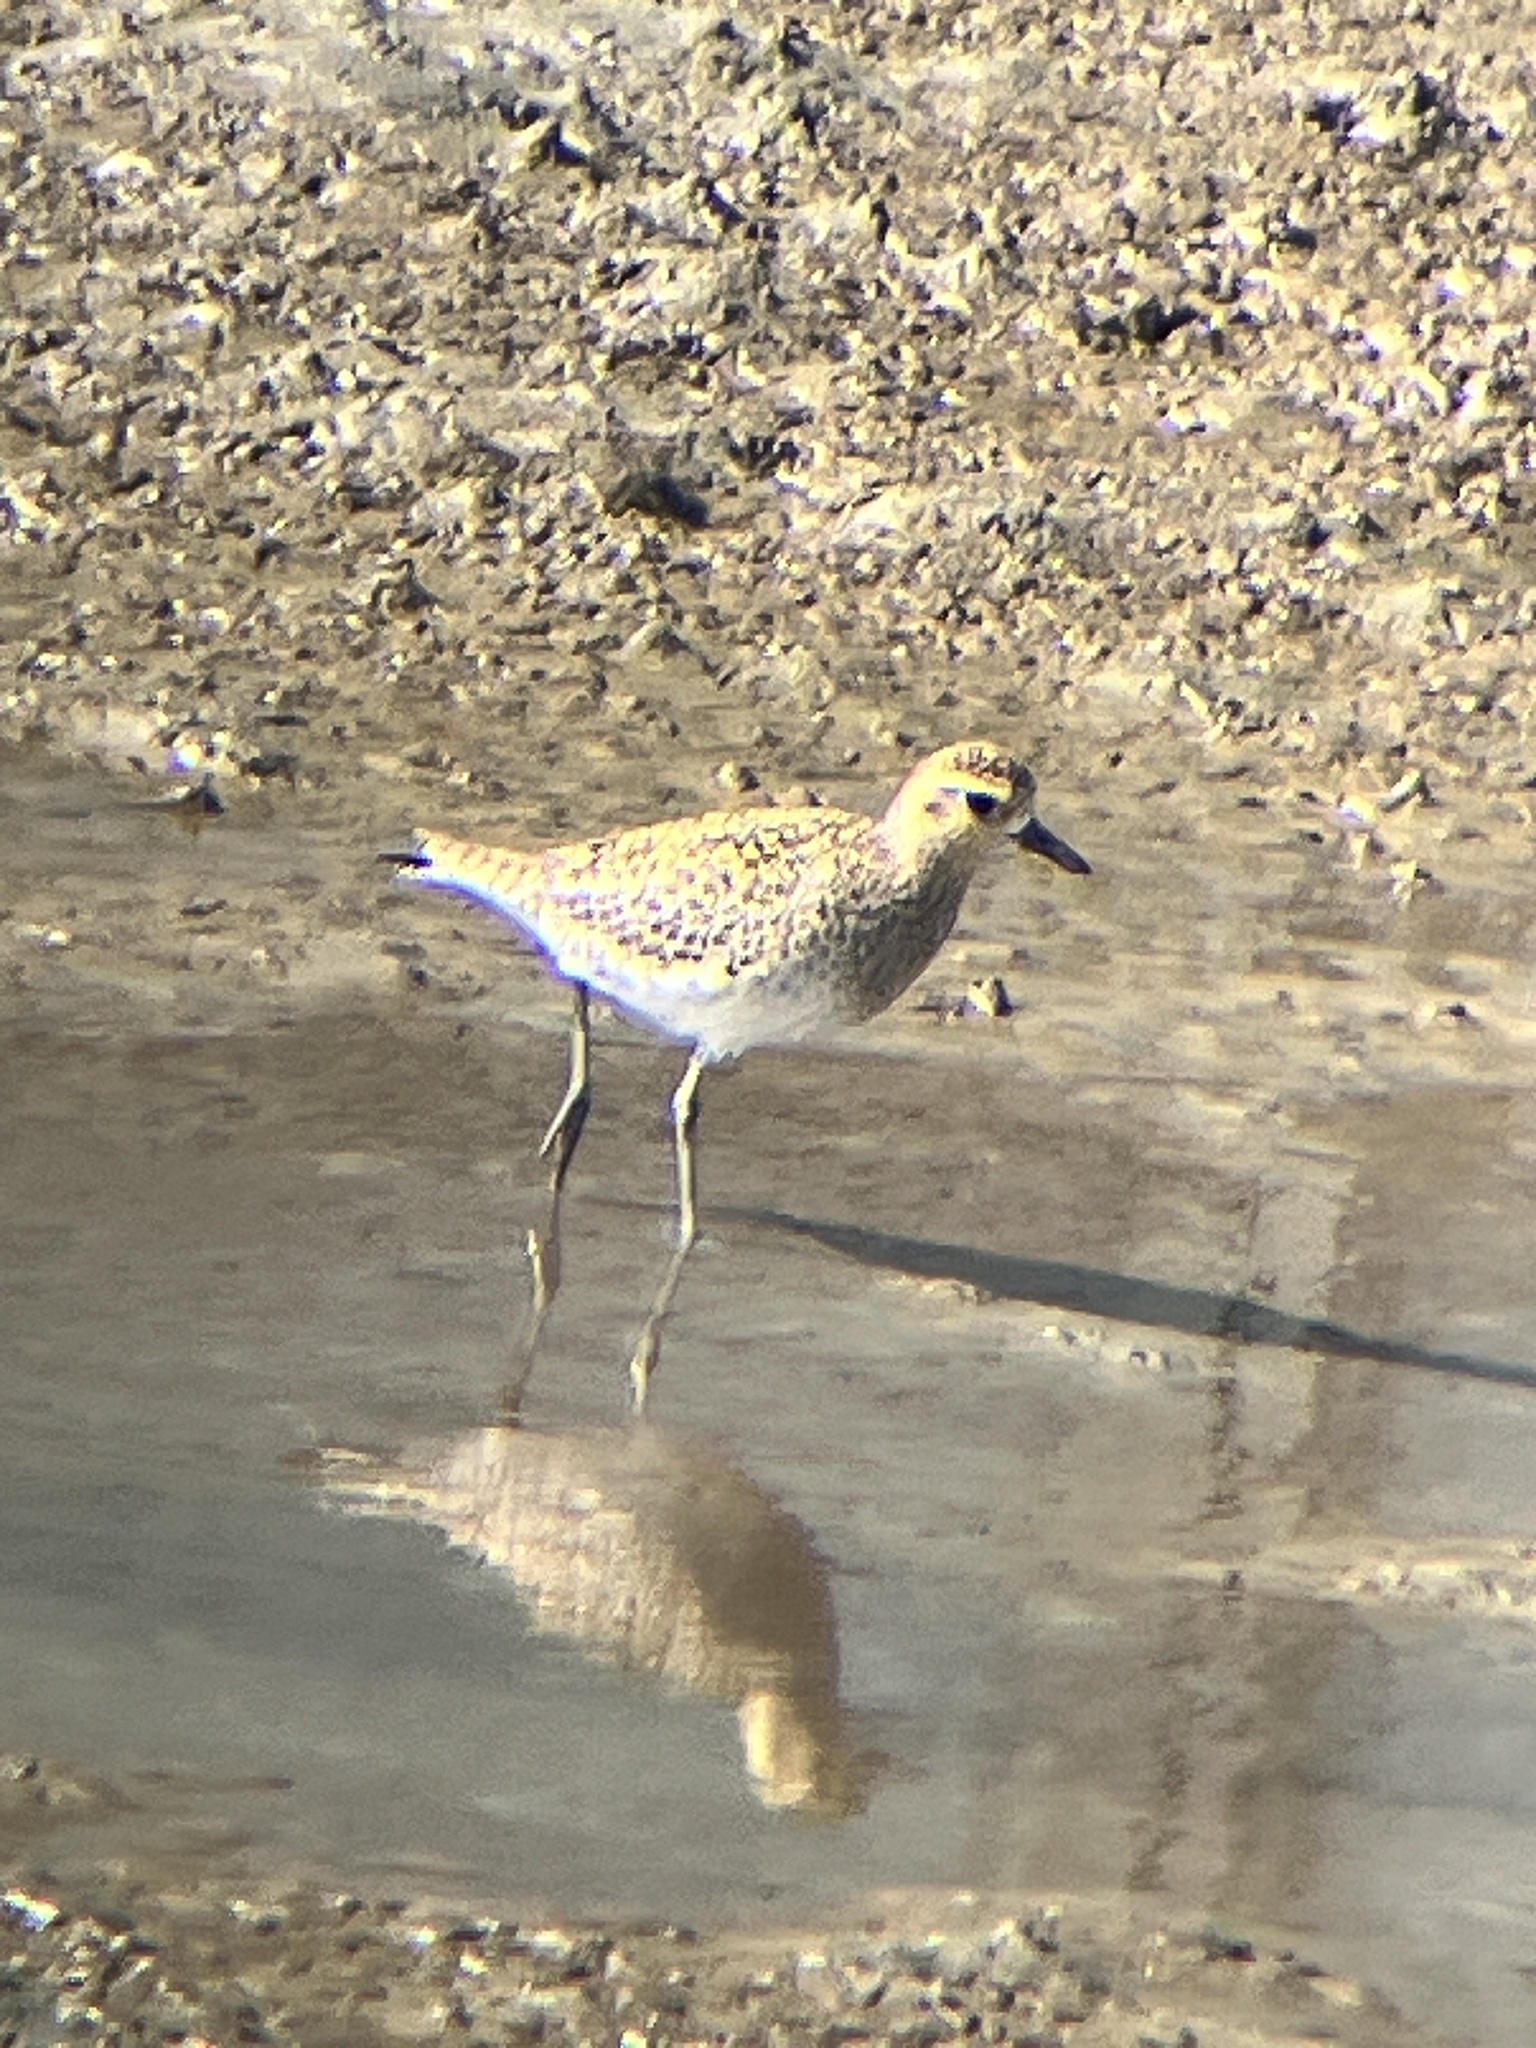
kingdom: Animalia
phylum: Chordata
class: Aves
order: Charadriiformes
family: Charadriidae
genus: Pluvialis
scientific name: Pluvialis fulva
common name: Pacific golden plover
